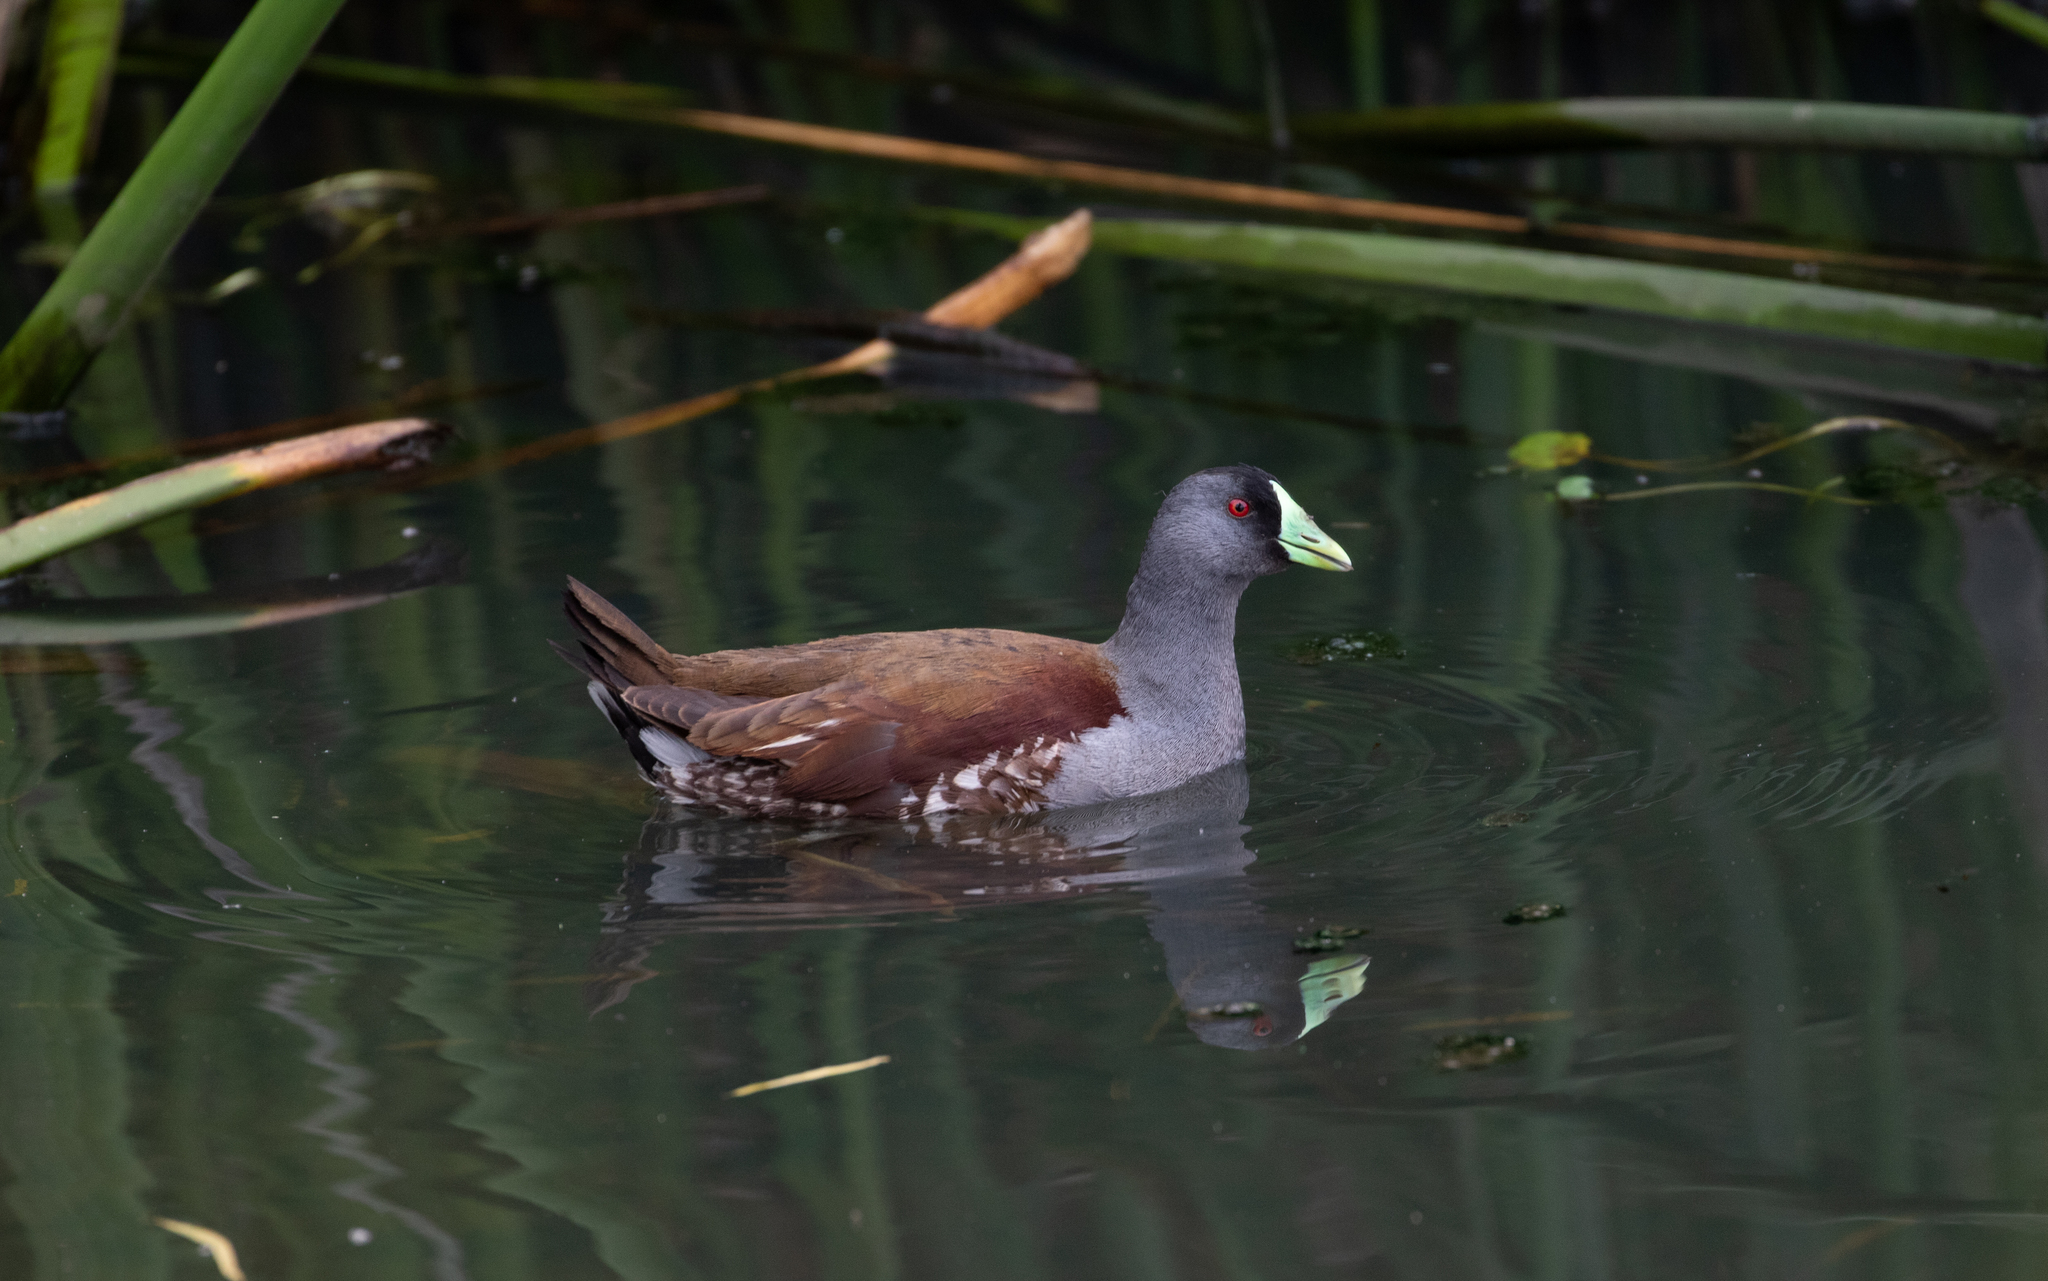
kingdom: Animalia
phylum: Chordata
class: Aves
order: Gruiformes
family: Rallidae
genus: Gallinula
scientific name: Gallinula melanops
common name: Spot-flanked gallinule
